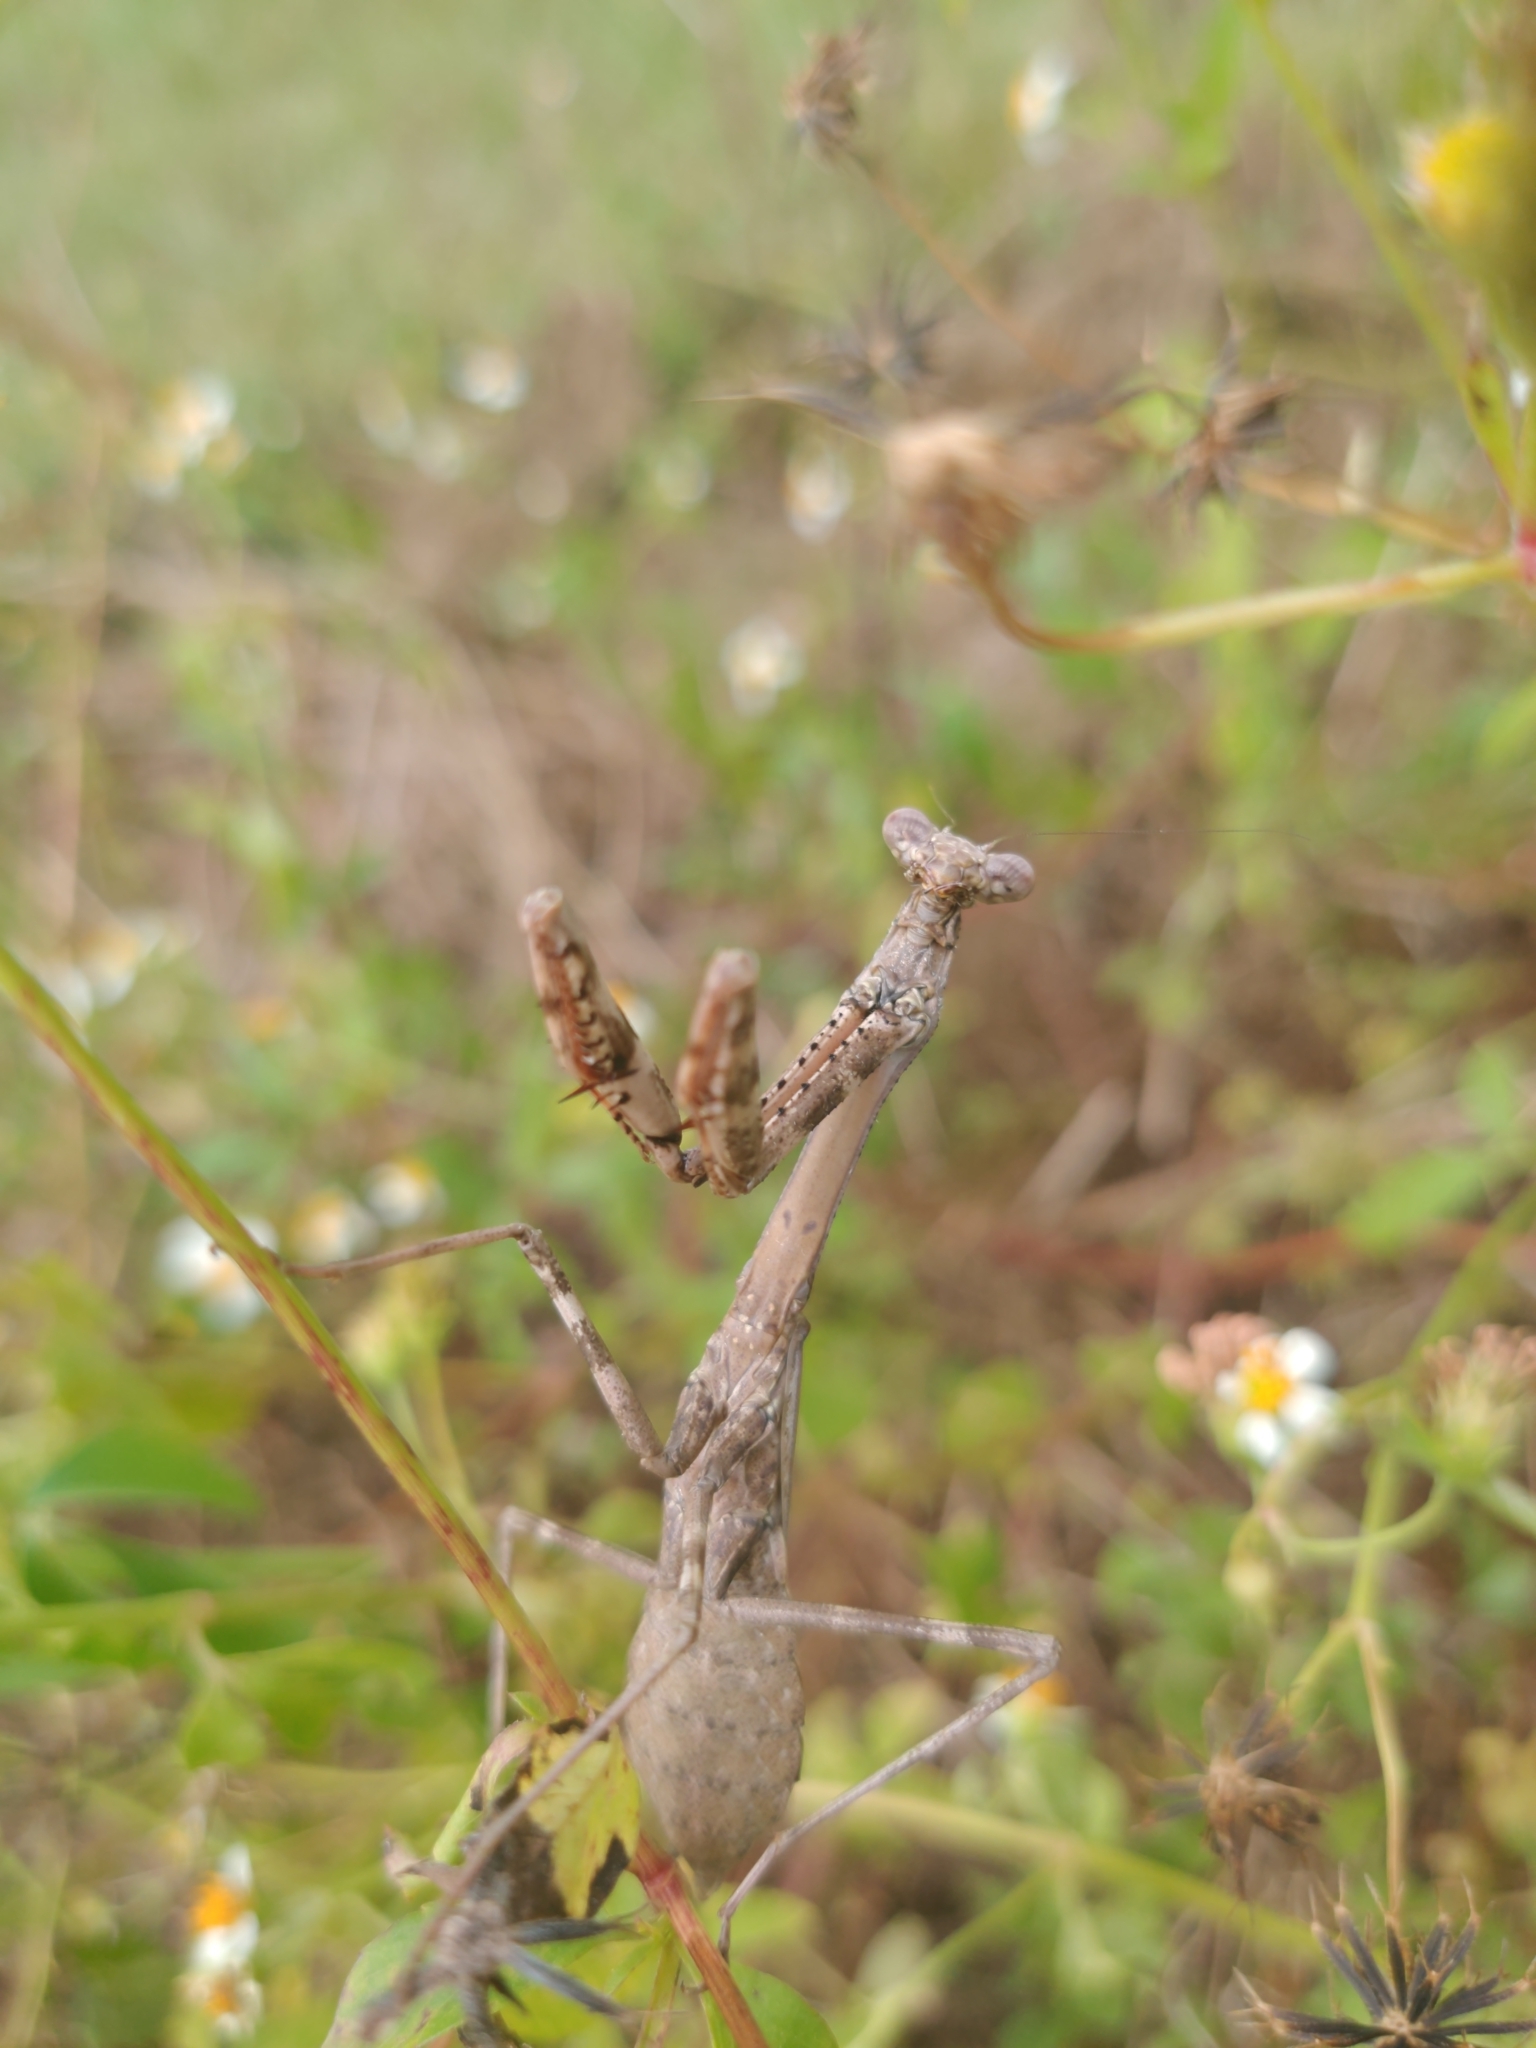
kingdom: Animalia
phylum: Arthropoda
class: Insecta
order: Mantodea
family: Mantidae
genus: Stagmomantis
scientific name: Stagmomantis carolina
